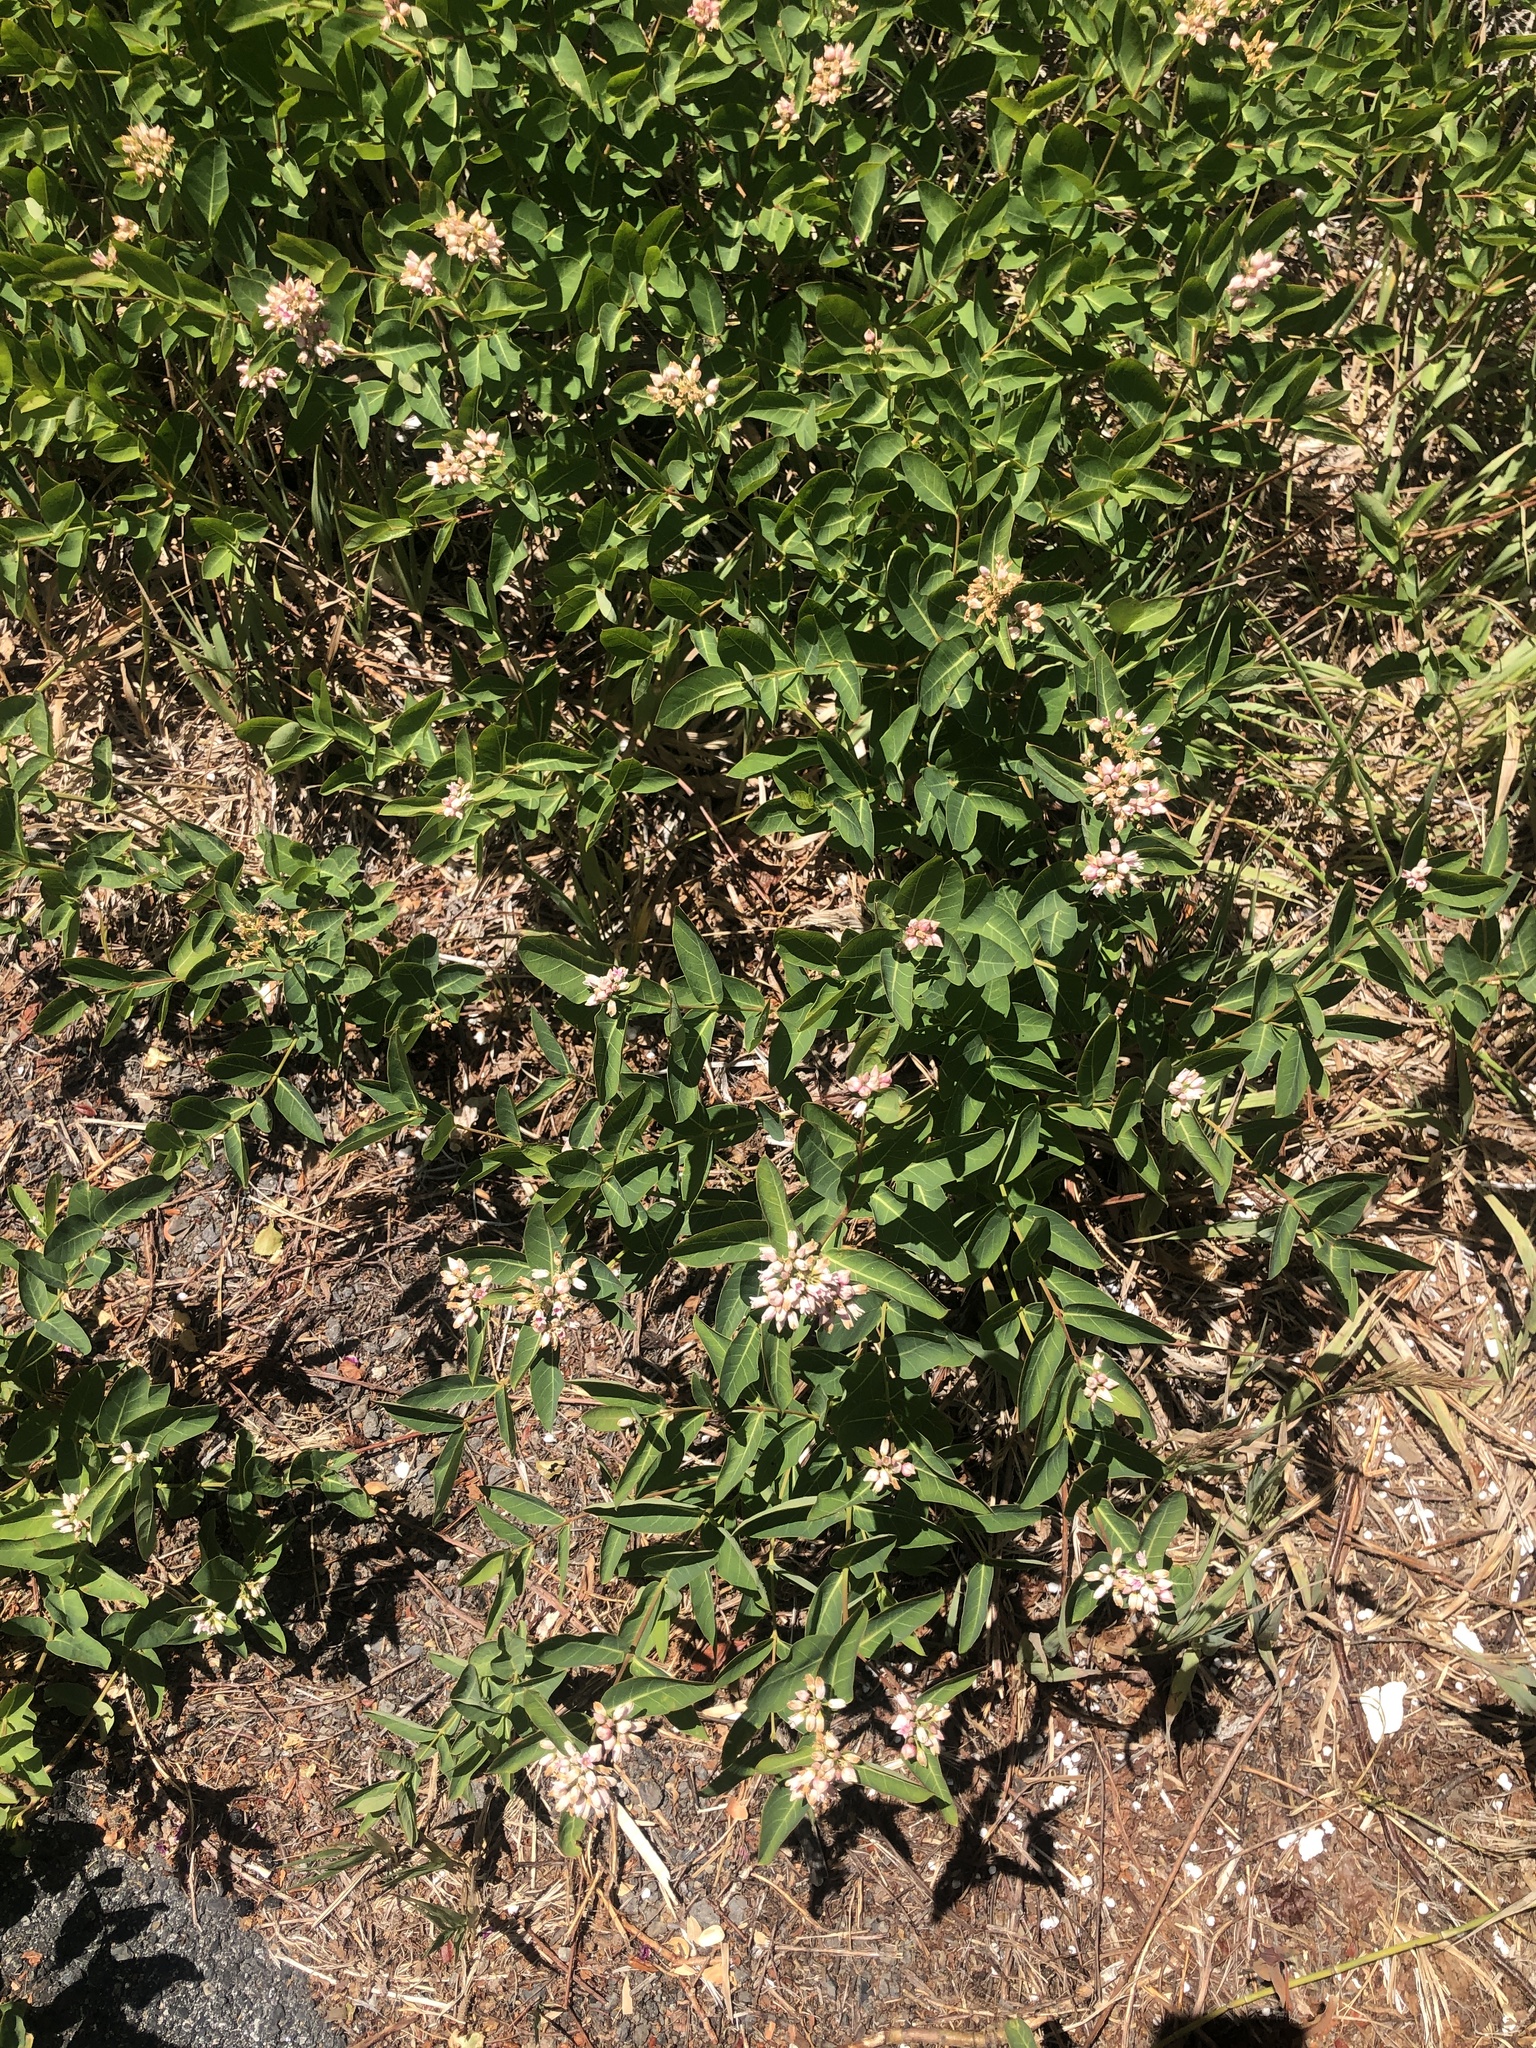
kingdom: Plantae
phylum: Tracheophyta
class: Magnoliopsida
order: Gentianales
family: Apocynaceae
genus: Apocynum
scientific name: Apocynum androsaemifolium
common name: Spreading dogbane
